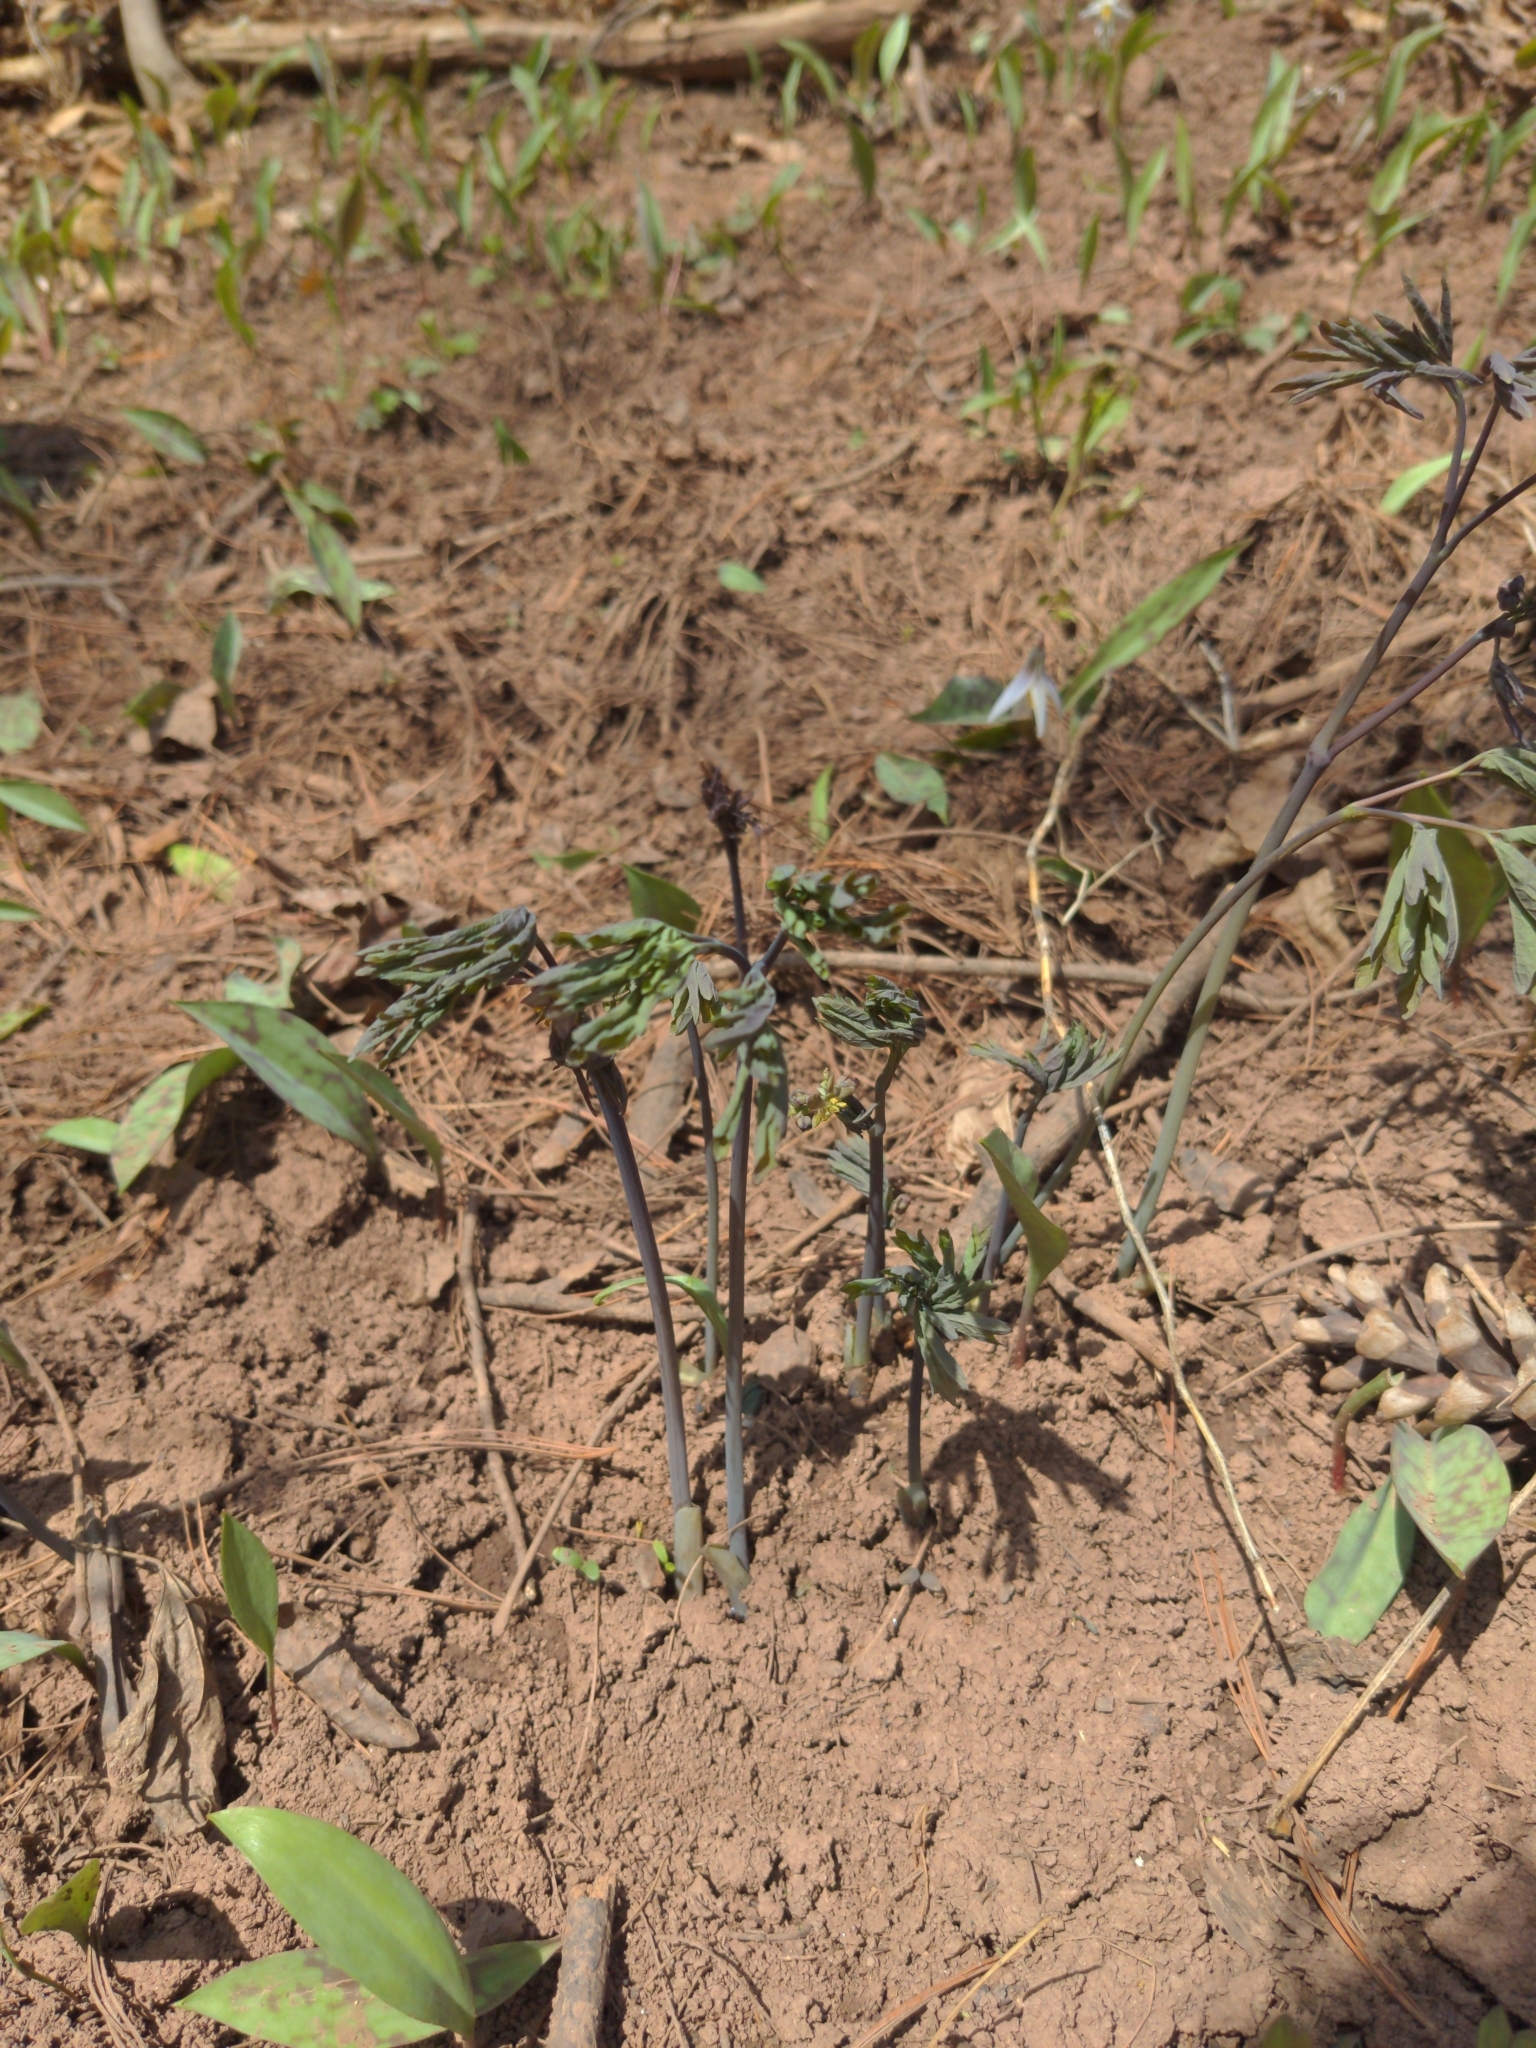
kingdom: Plantae
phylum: Tracheophyta
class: Magnoliopsida
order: Ranunculales
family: Berberidaceae
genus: Caulophyllum
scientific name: Caulophyllum giganteum
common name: Blue cohosh
